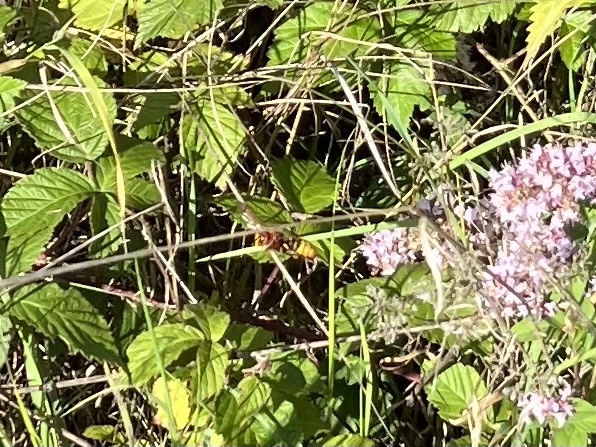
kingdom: Animalia
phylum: Arthropoda
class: Insecta
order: Hymenoptera
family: Vespidae
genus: Vespa
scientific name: Vespa crabro
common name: Hornet
